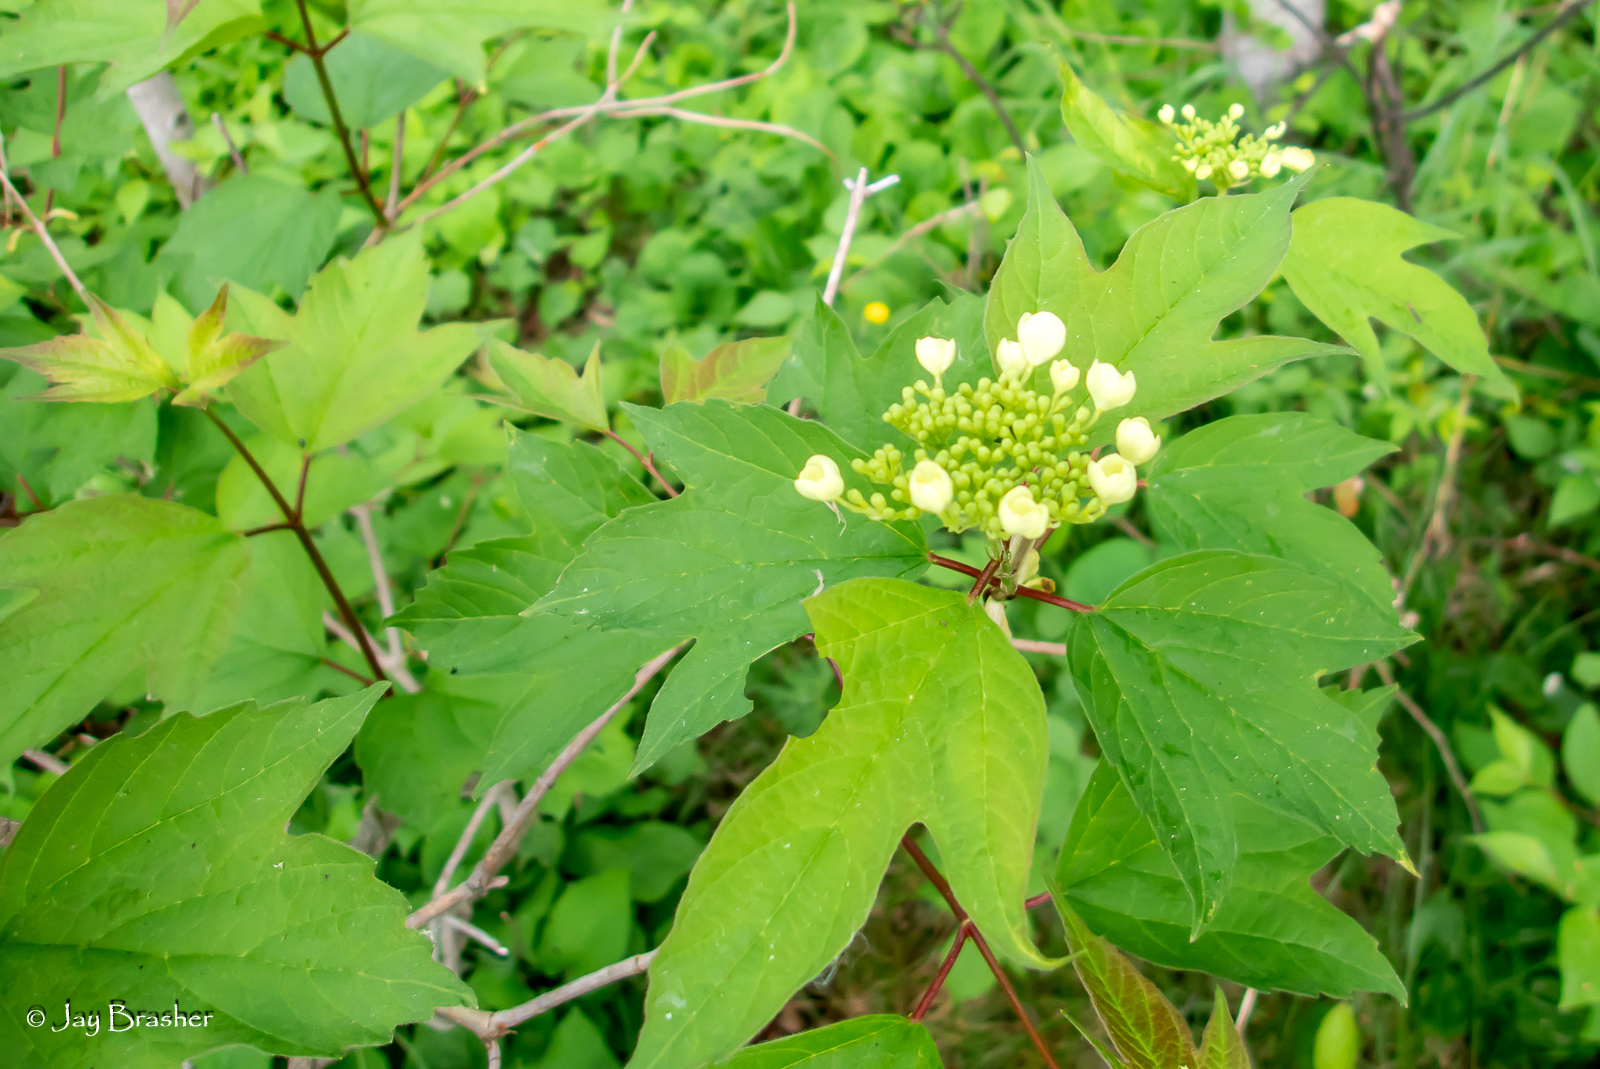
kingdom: Plantae
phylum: Tracheophyta
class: Magnoliopsida
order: Dipsacales
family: Viburnaceae
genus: Viburnum
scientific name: Viburnum opulus
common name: Guelder-rose
